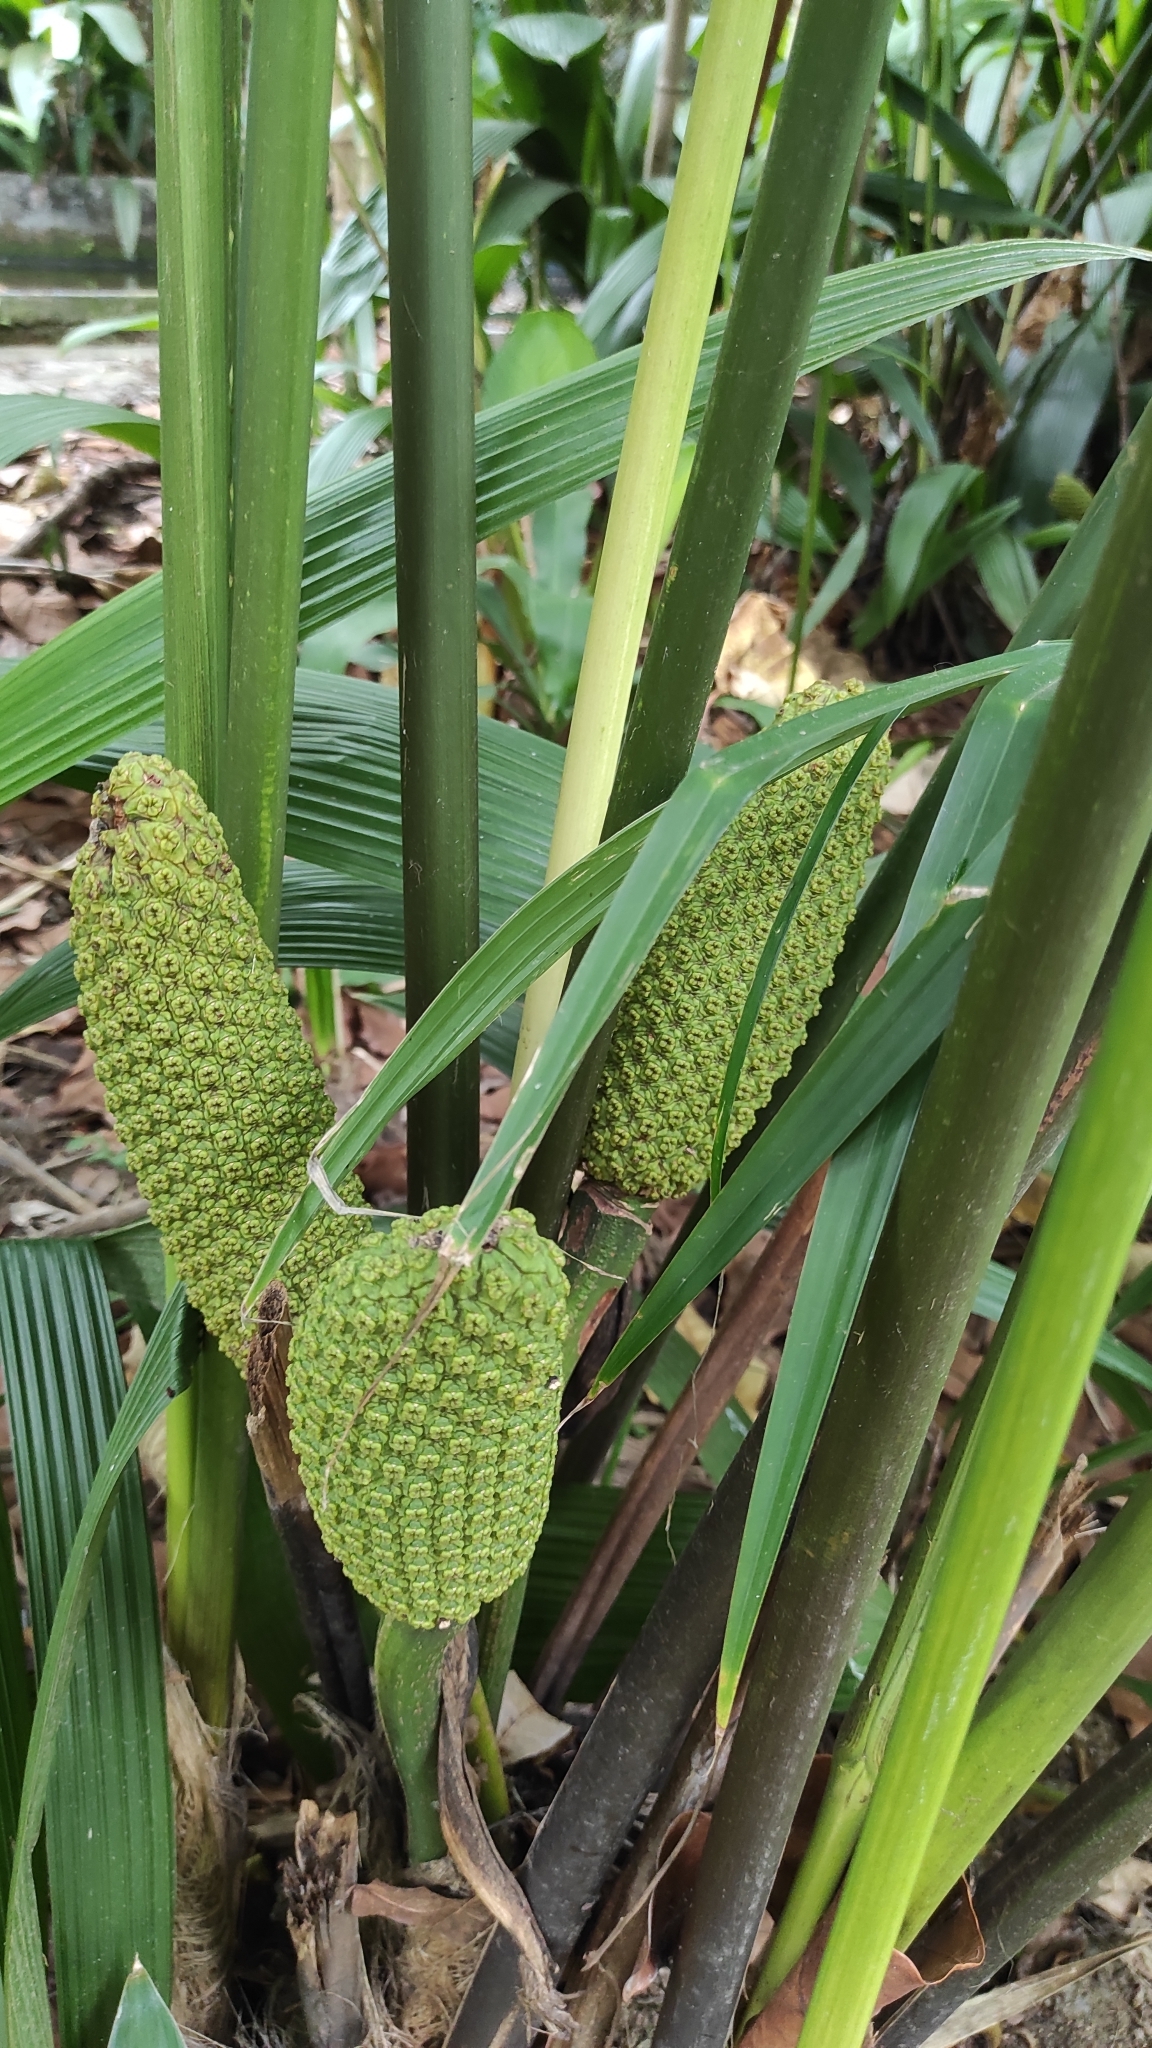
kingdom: Plantae
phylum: Tracheophyta
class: Liliopsida
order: Pandanales
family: Cyclanthaceae
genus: Carludovica
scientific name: Carludovica palmata
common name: Panama hat plant
